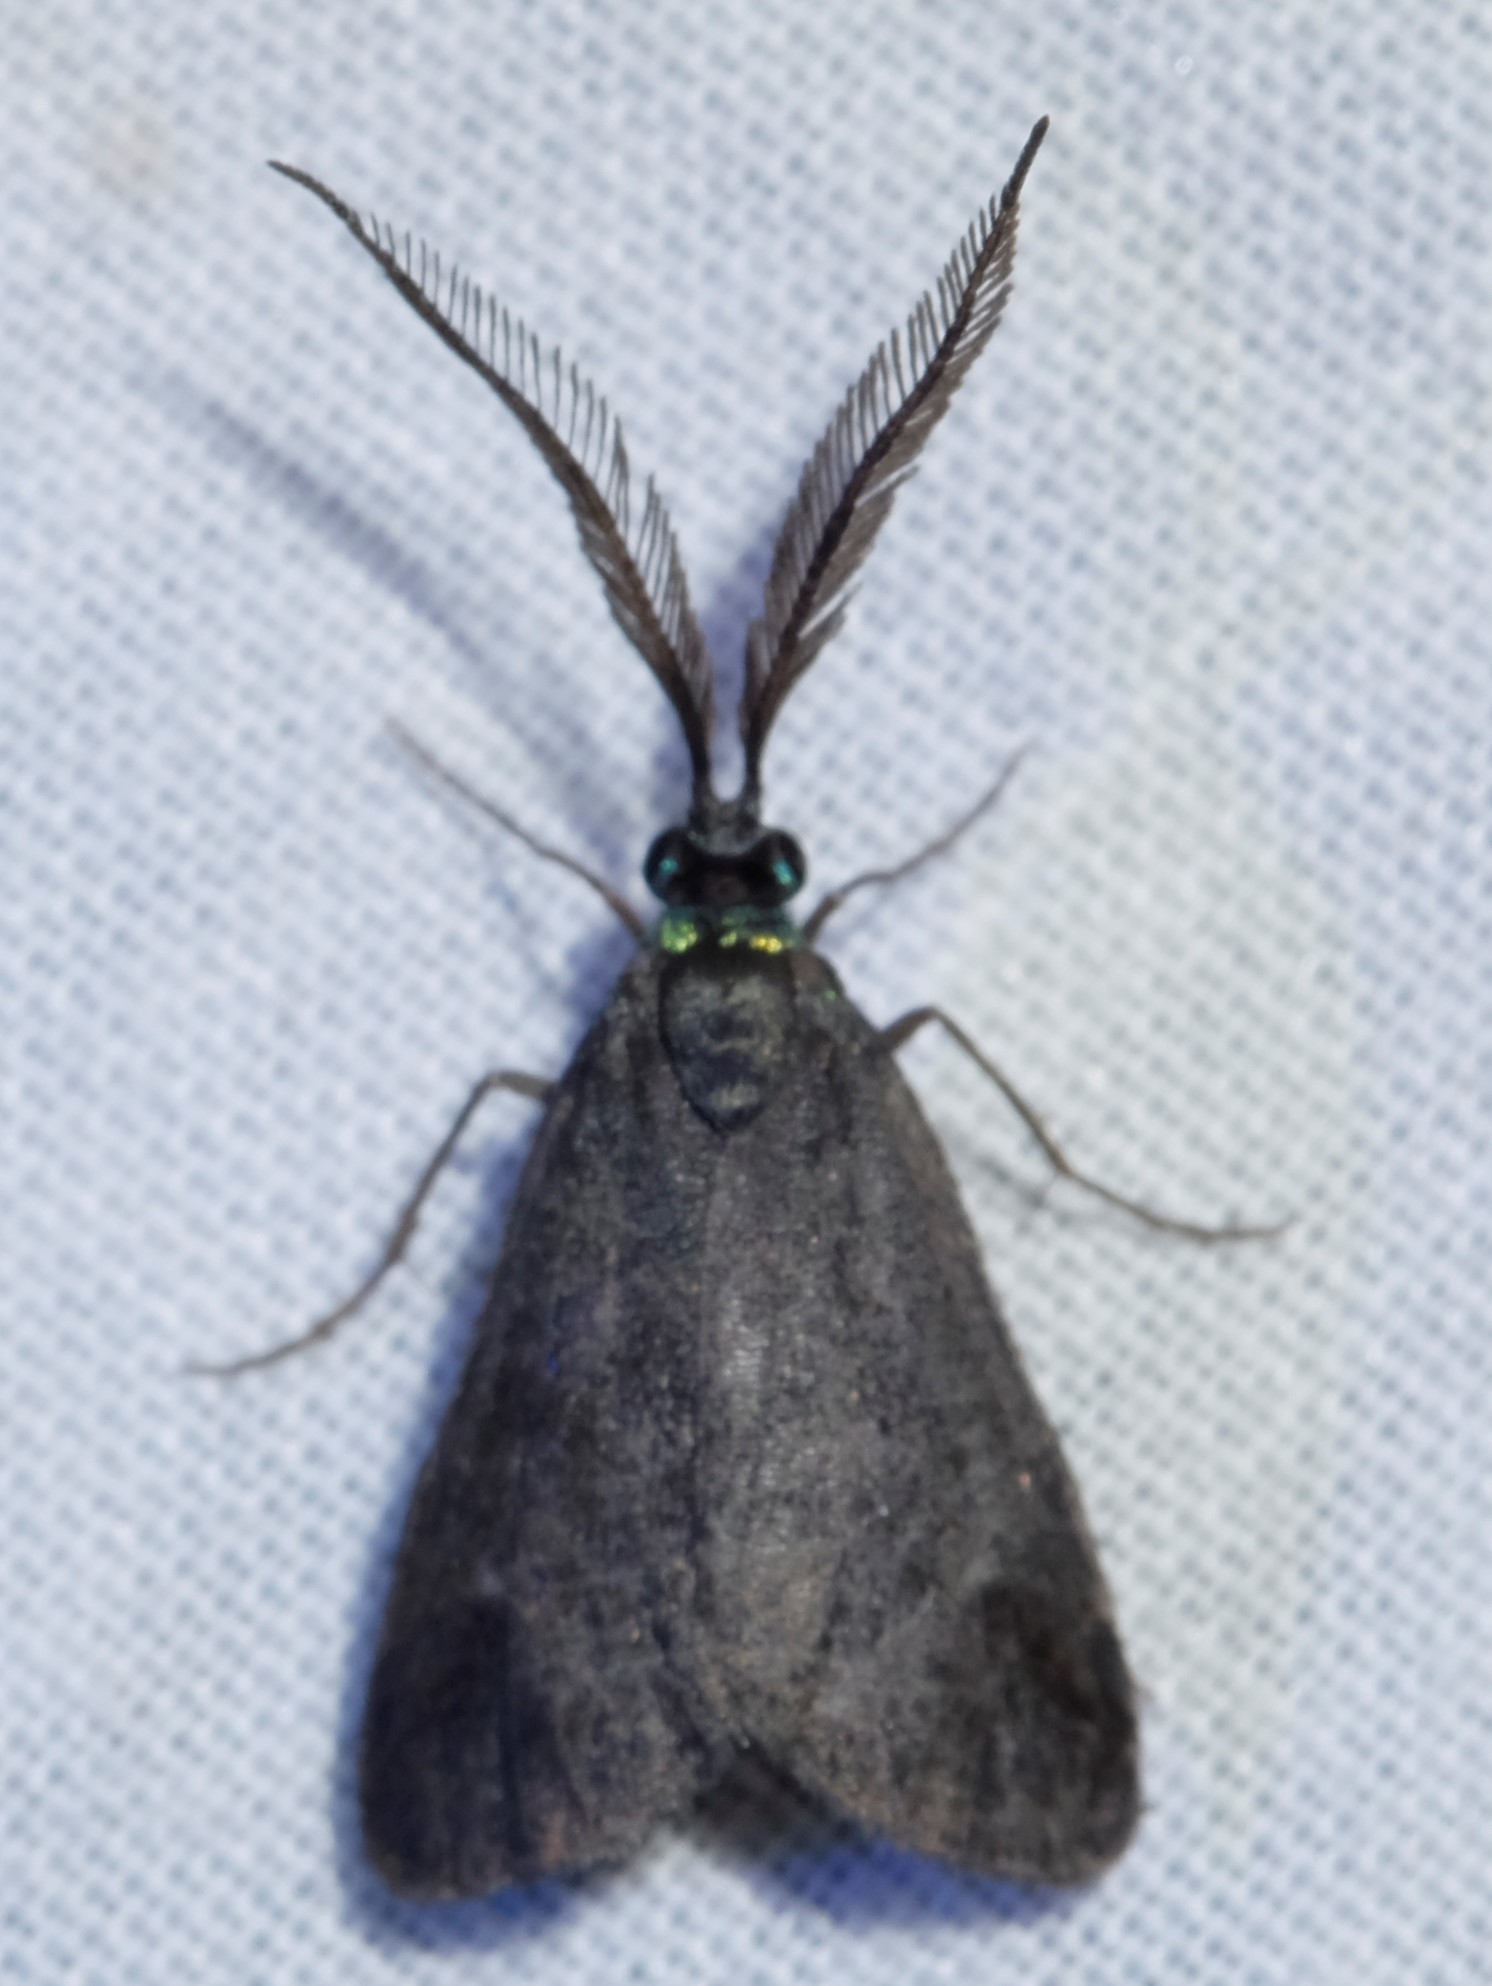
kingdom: Animalia
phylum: Arthropoda
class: Insecta
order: Lepidoptera
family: Zygaenidae
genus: Pollanisus
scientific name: Pollanisus lithopastus
